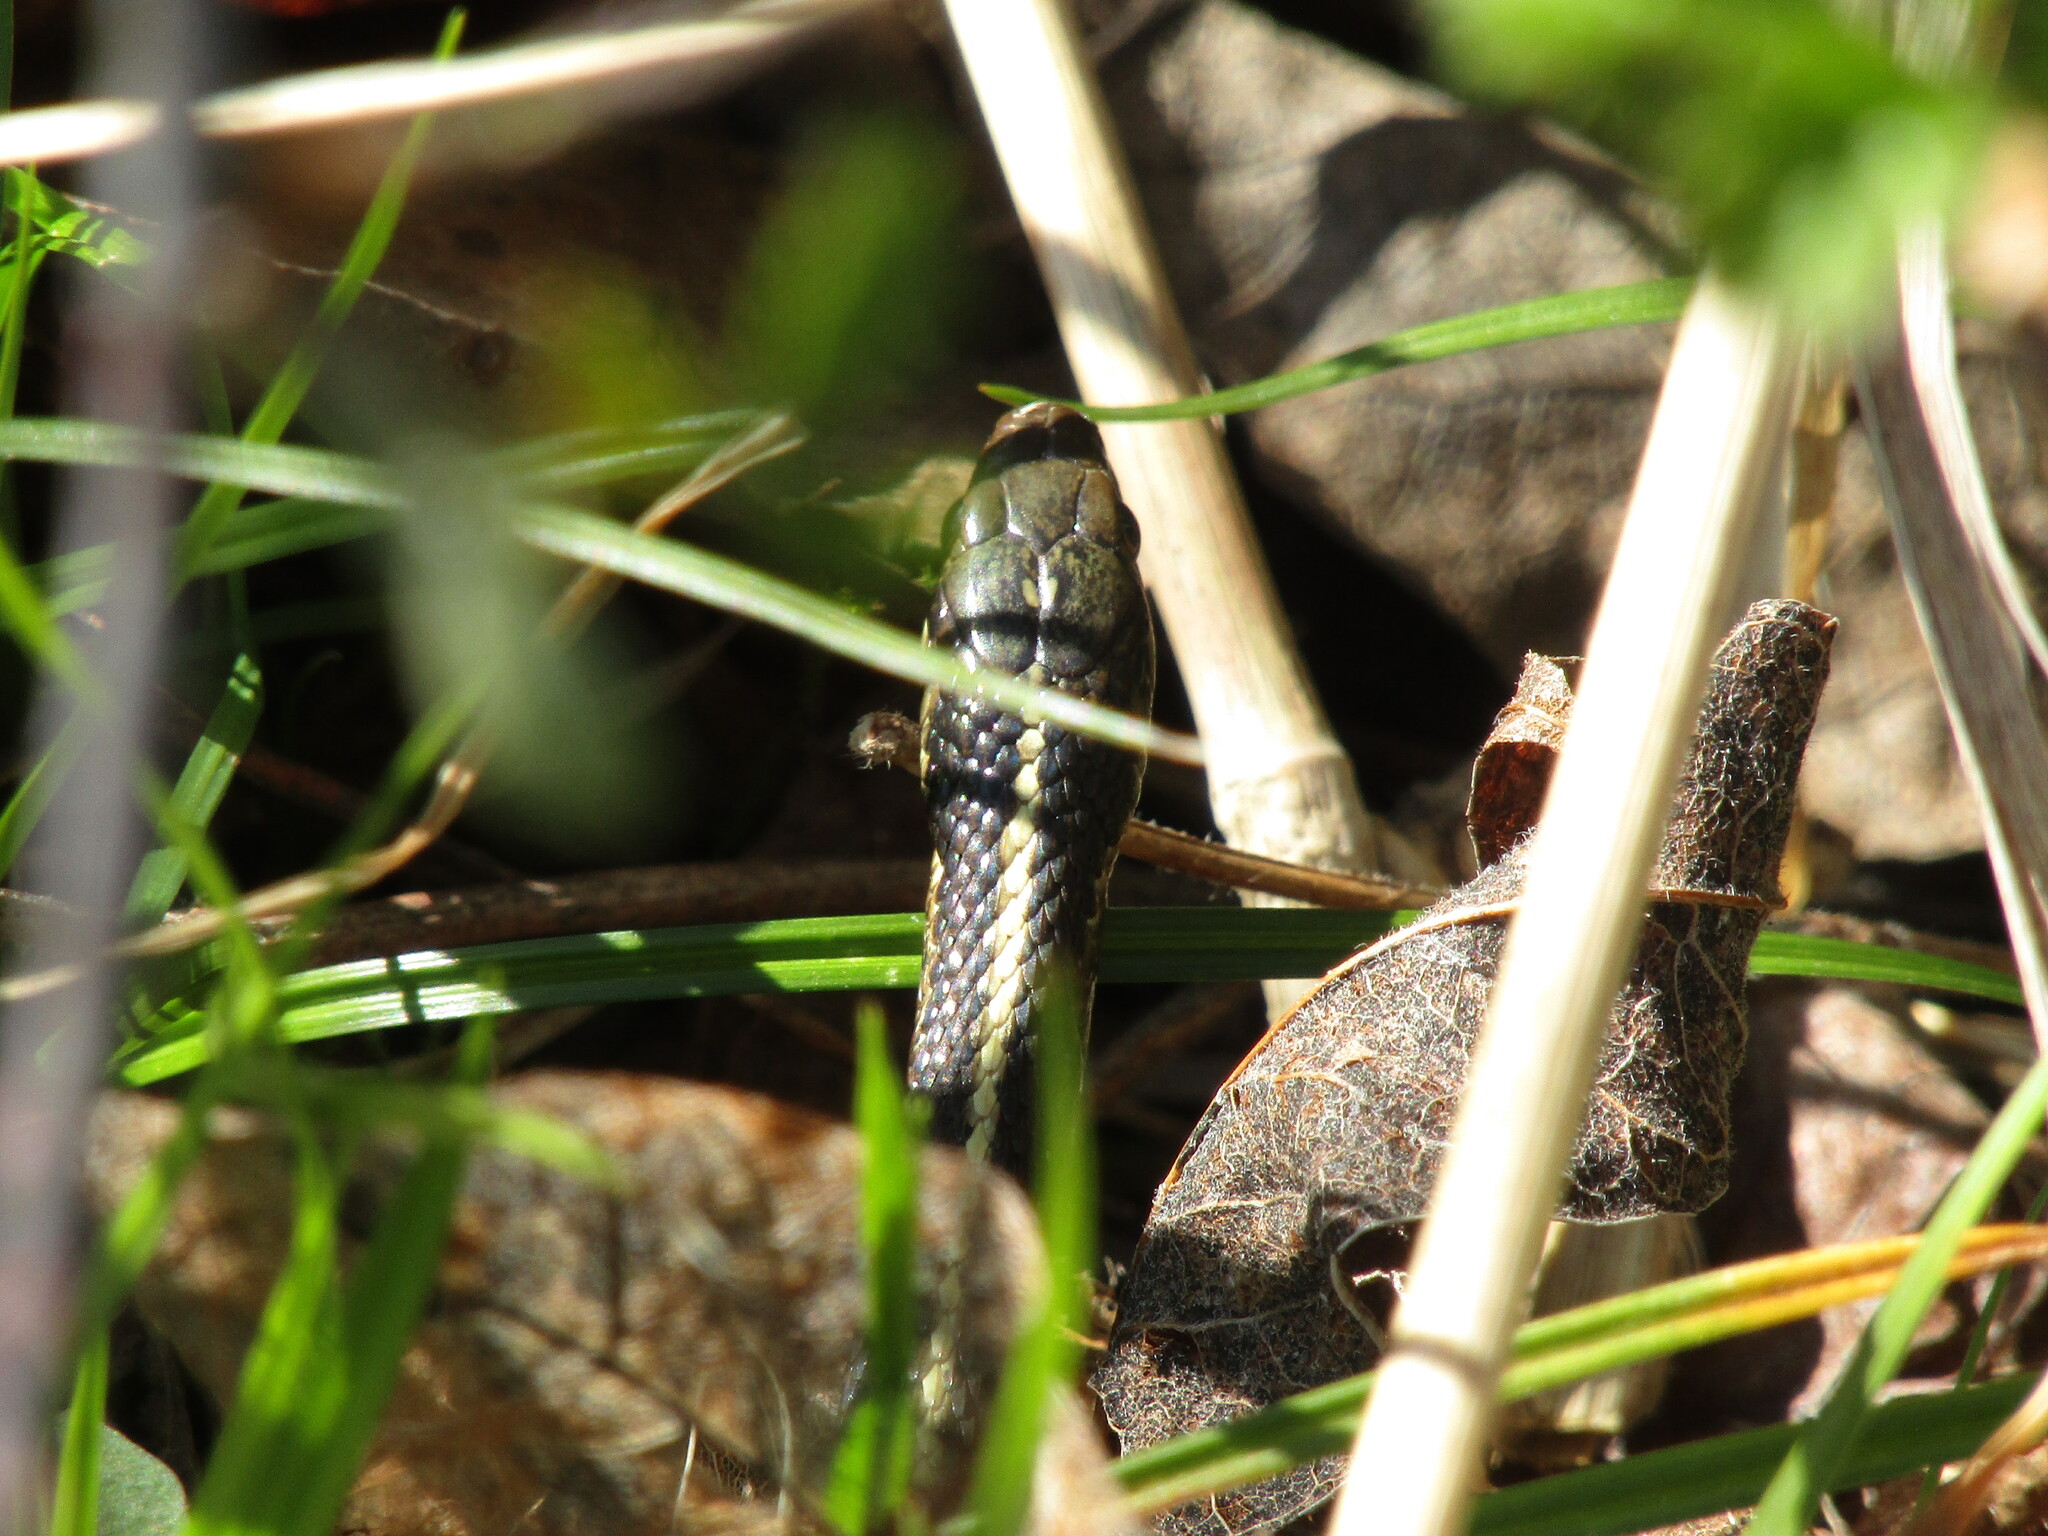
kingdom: Animalia
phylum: Chordata
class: Squamata
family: Colubridae
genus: Thamnophis
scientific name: Thamnophis ordinoides
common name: Northwestern garter snake
